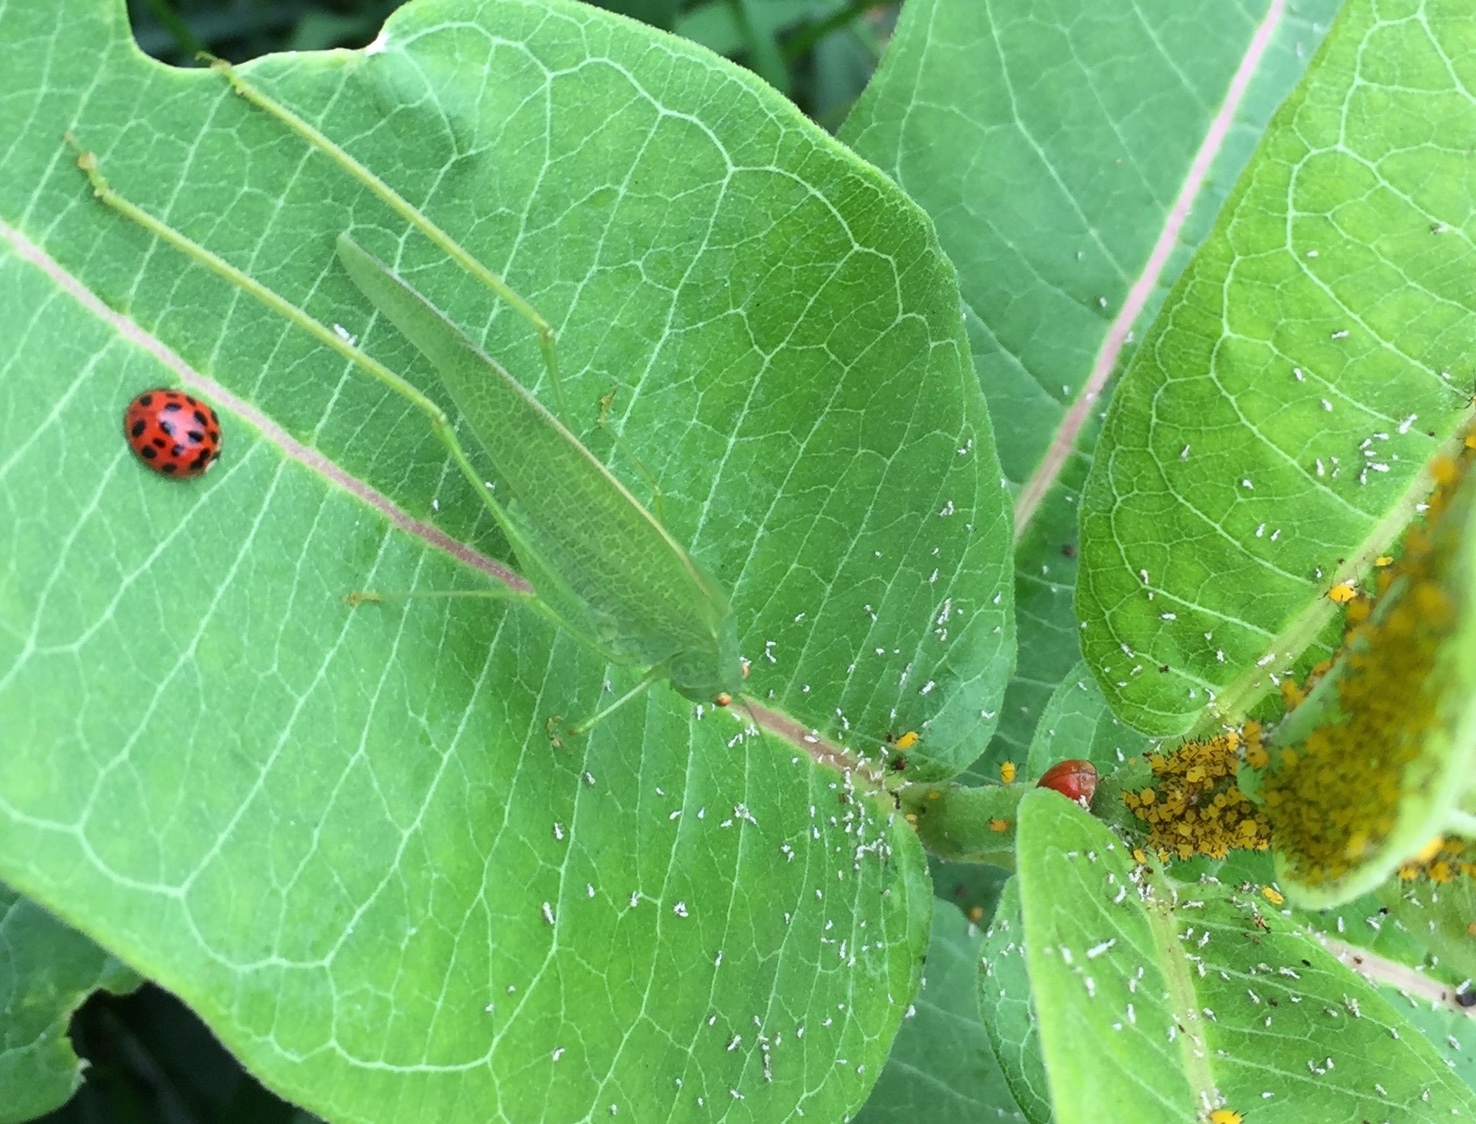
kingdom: Animalia
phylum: Arthropoda
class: Insecta
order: Orthoptera
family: Tettigoniidae
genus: Phaneroptera
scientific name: Phaneroptera nana
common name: Southern sickle bush-cricket
